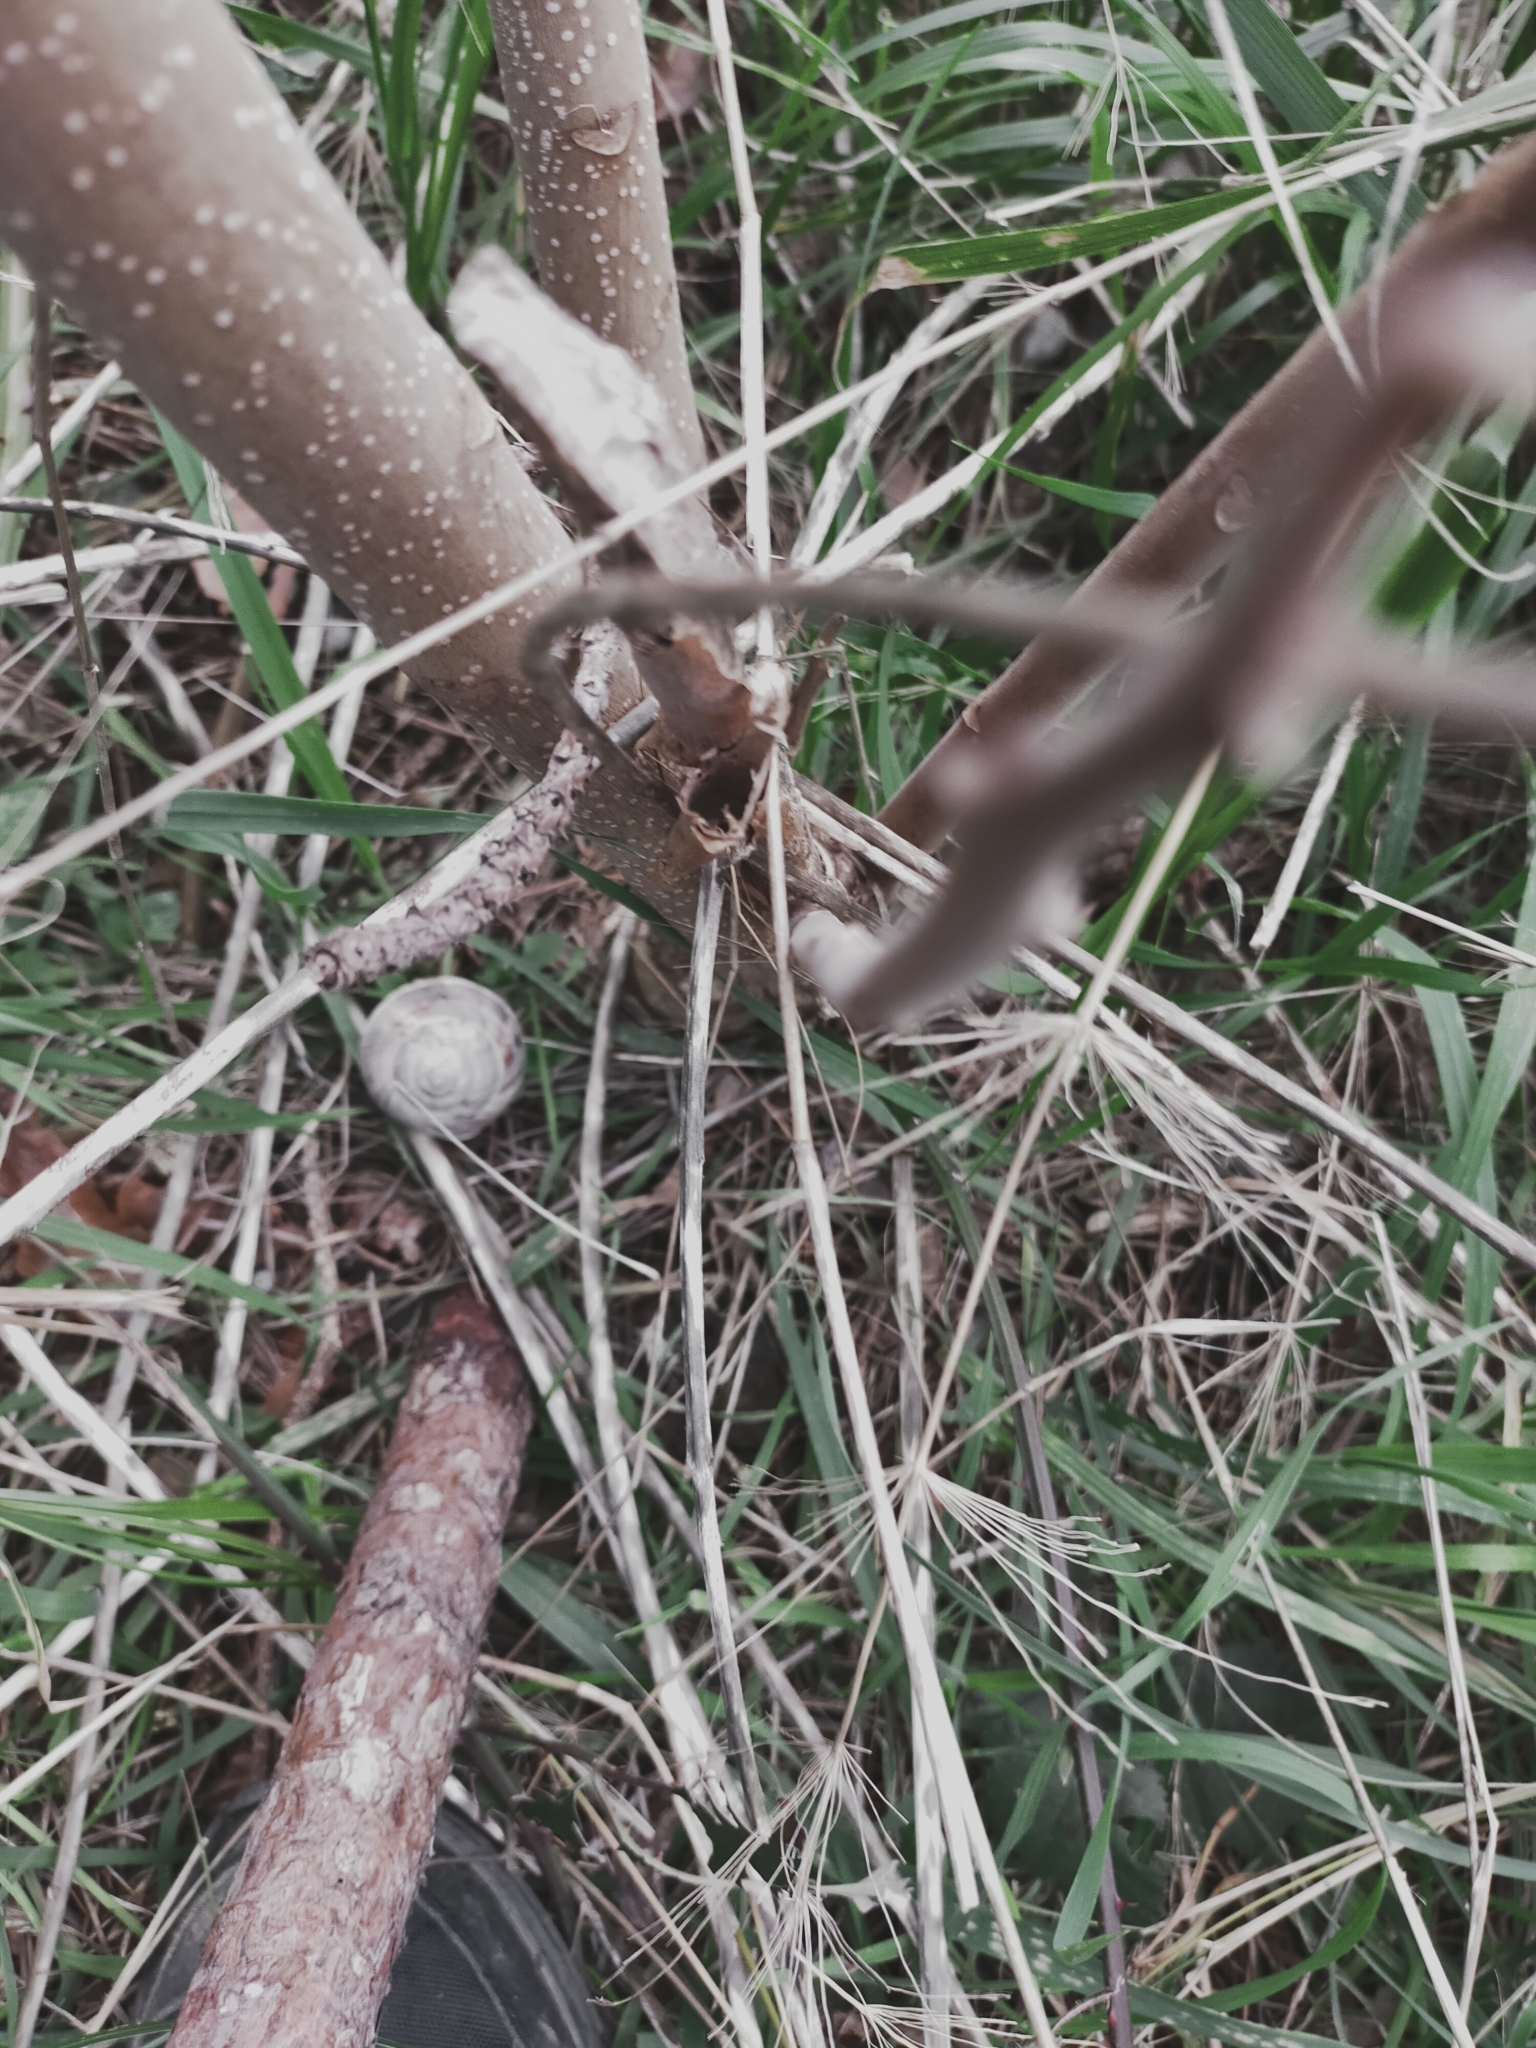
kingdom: Animalia
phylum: Mollusca
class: Gastropoda
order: Stylommatophora
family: Helicidae
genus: Helix
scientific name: Helix lucorum
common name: Turkish snail
